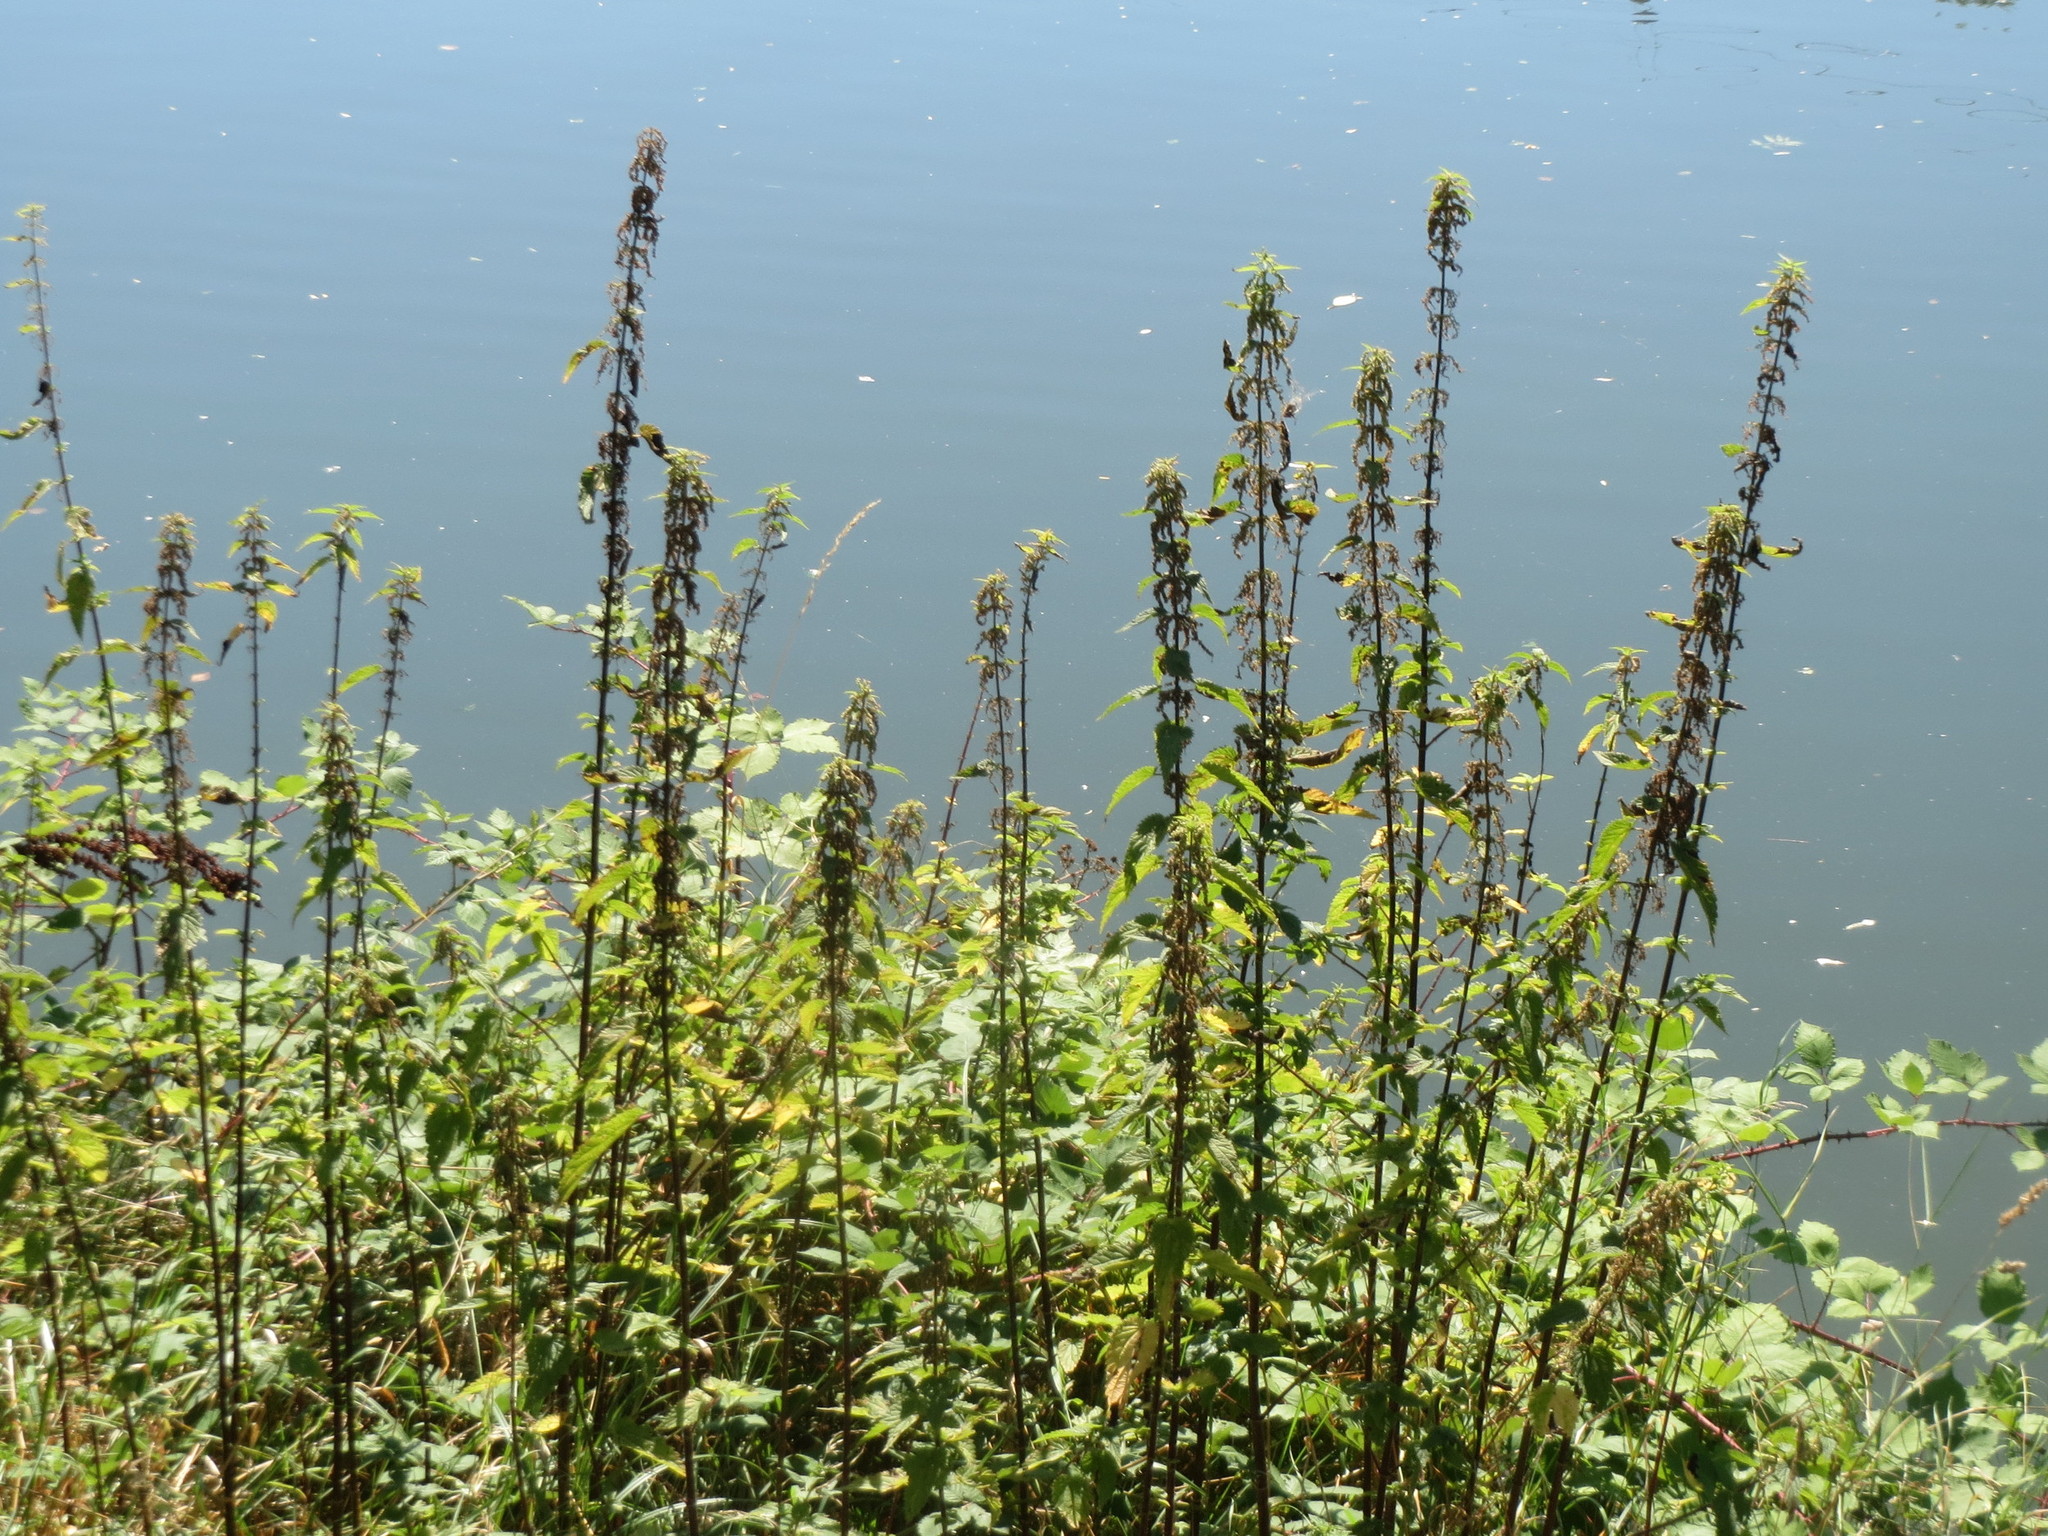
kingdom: Plantae
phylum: Tracheophyta
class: Magnoliopsida
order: Rosales
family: Urticaceae
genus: Urtica
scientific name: Urtica dioica
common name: Common nettle
